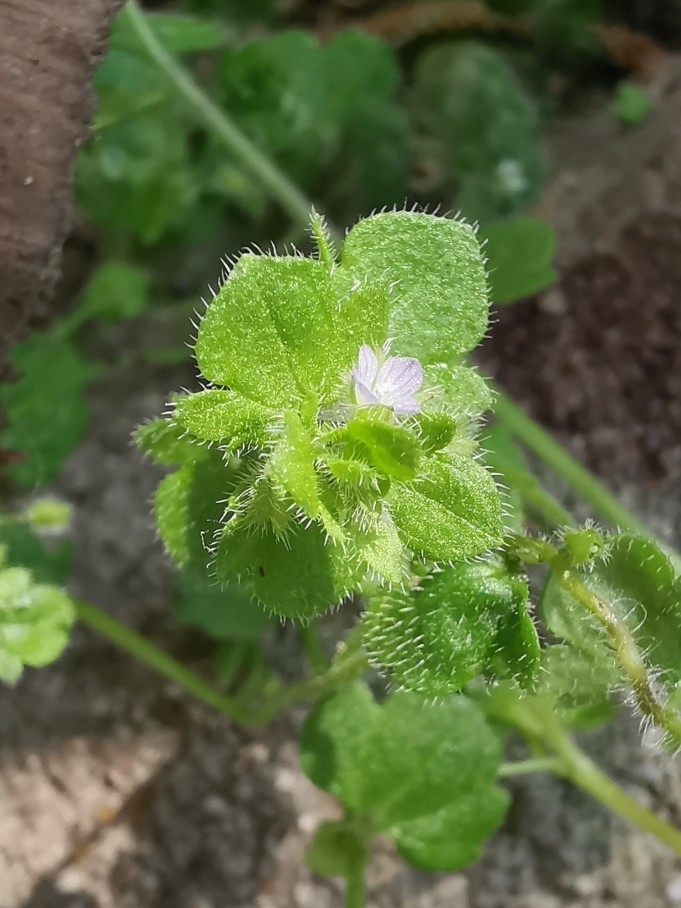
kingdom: Plantae
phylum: Tracheophyta
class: Magnoliopsida
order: Lamiales
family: Plantaginaceae
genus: Veronica
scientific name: Veronica sublobata
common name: False ivy-leaved speedwell
